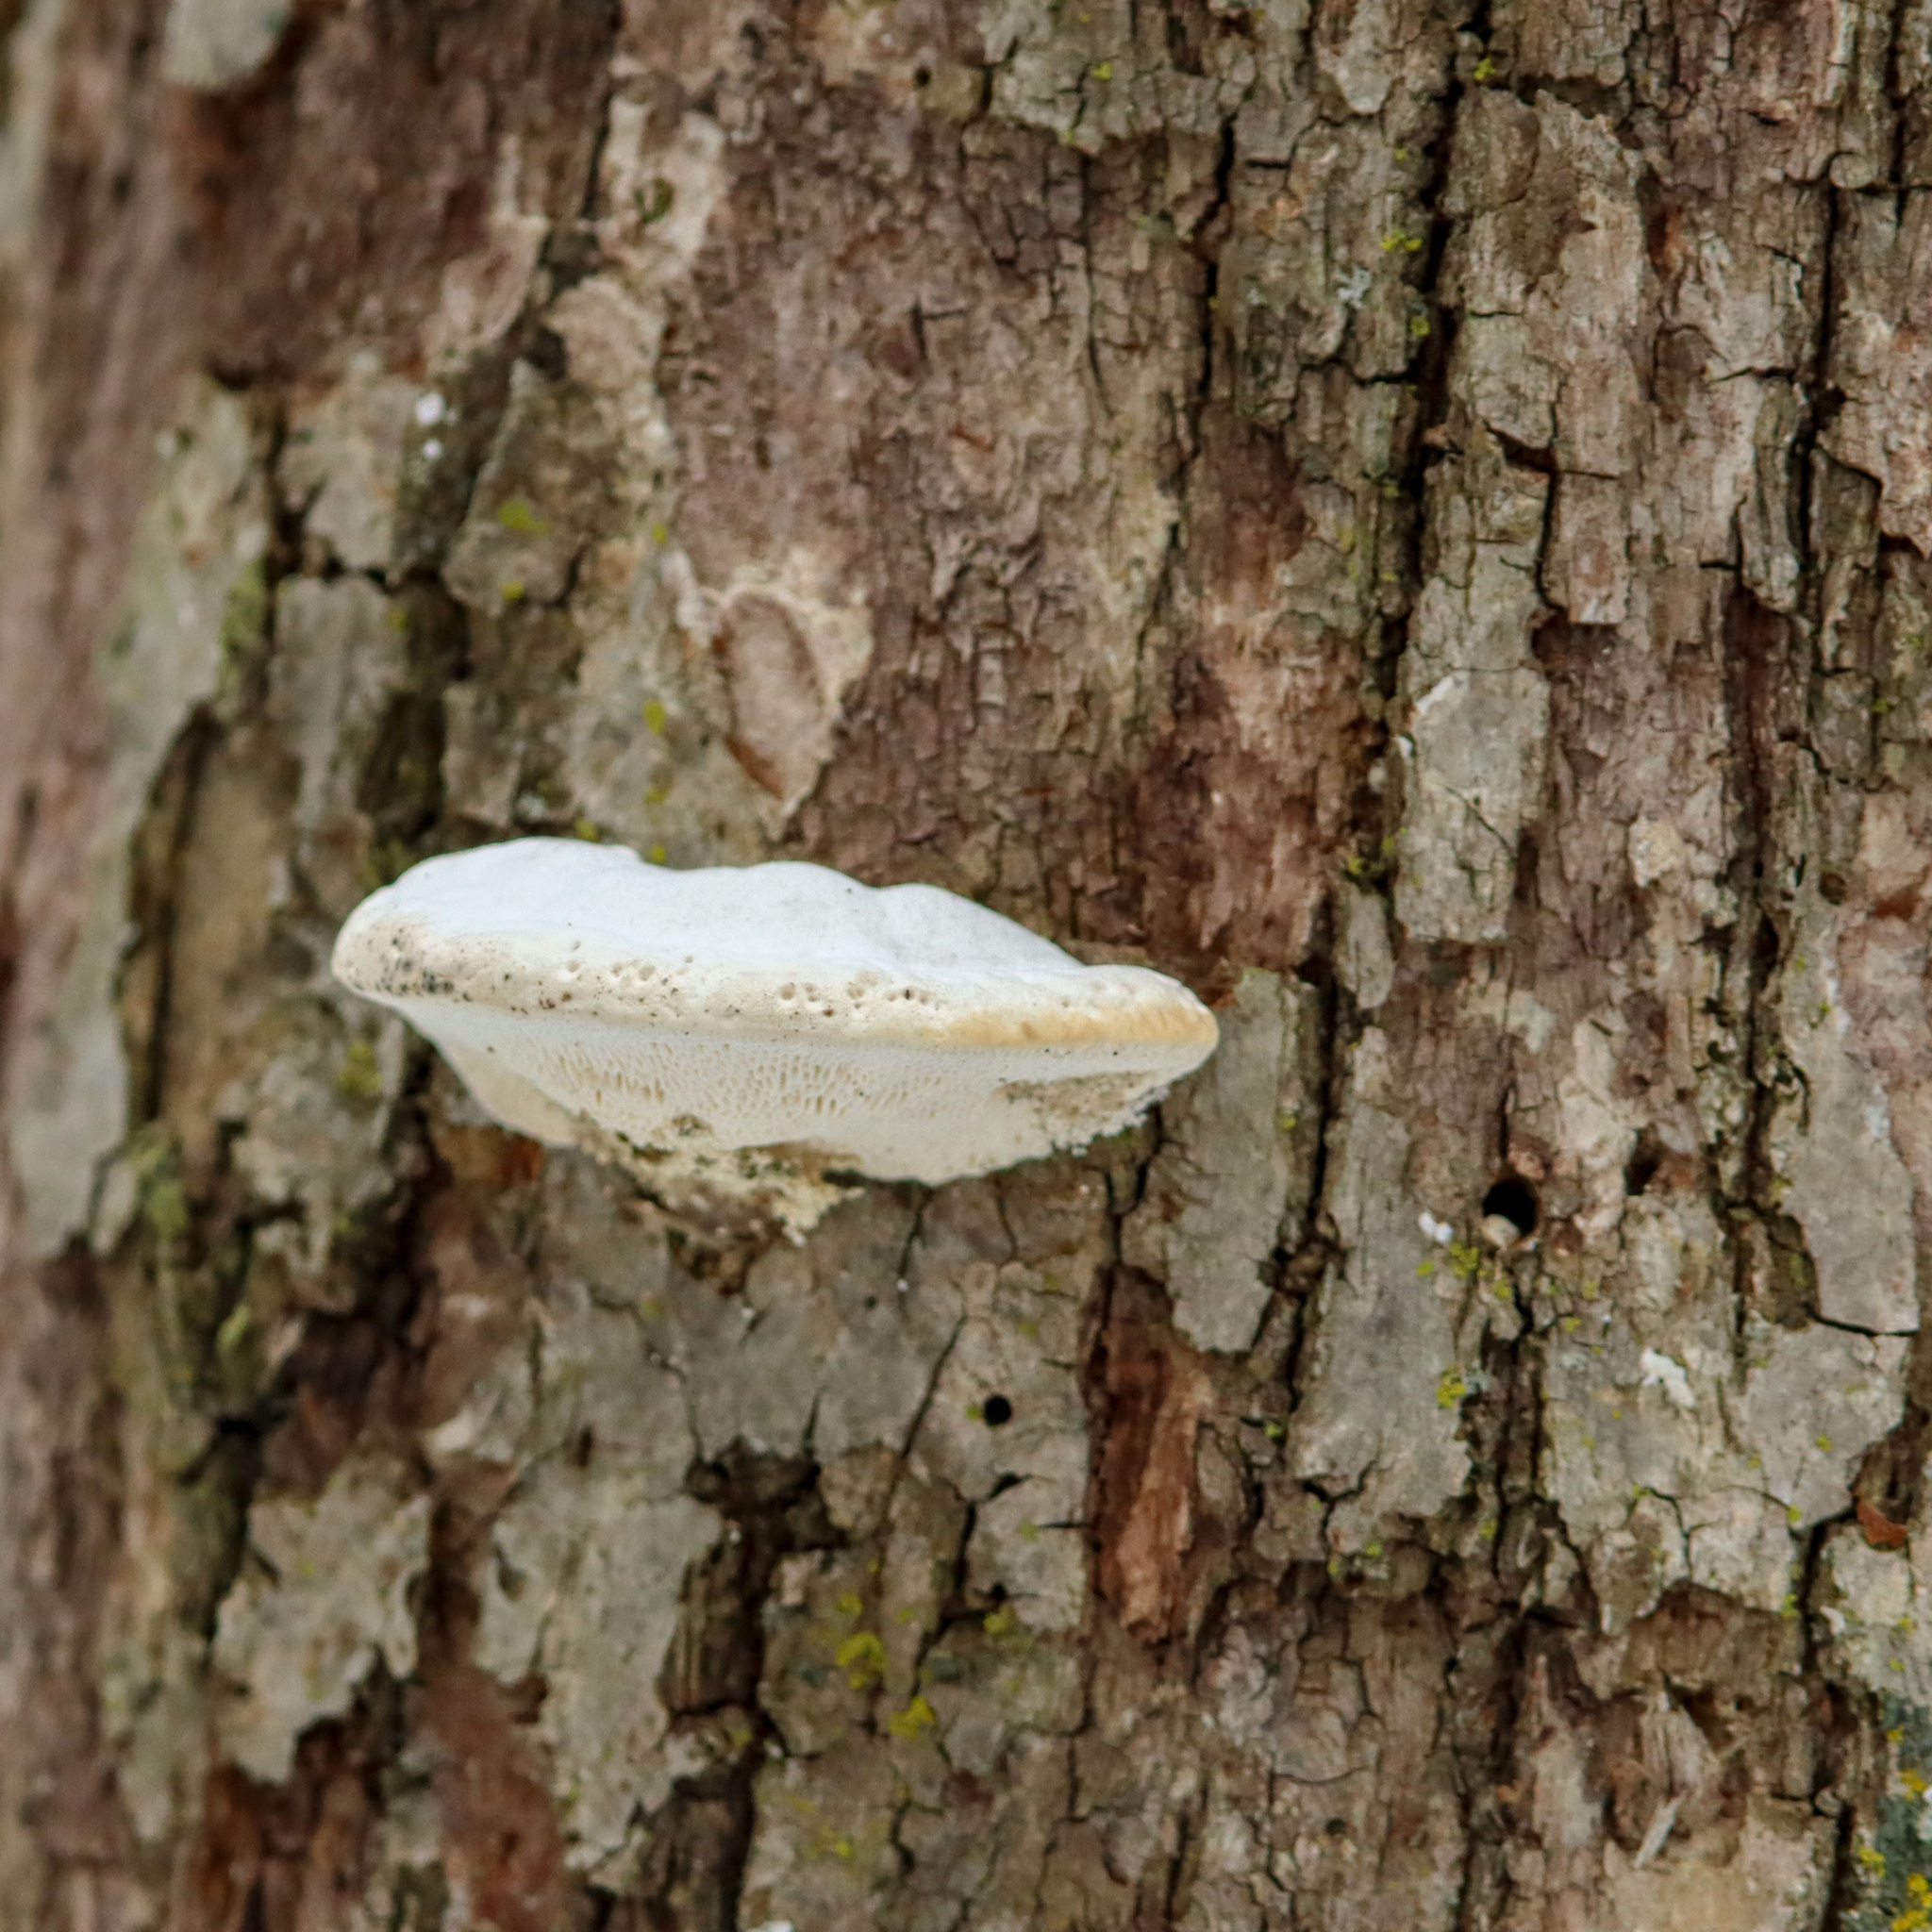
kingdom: Fungi
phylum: Basidiomycota
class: Agaricomycetes
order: Polyporales
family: Polyporaceae
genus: Trametes
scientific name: Trametes gibbosa
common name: Lumpy bracket
